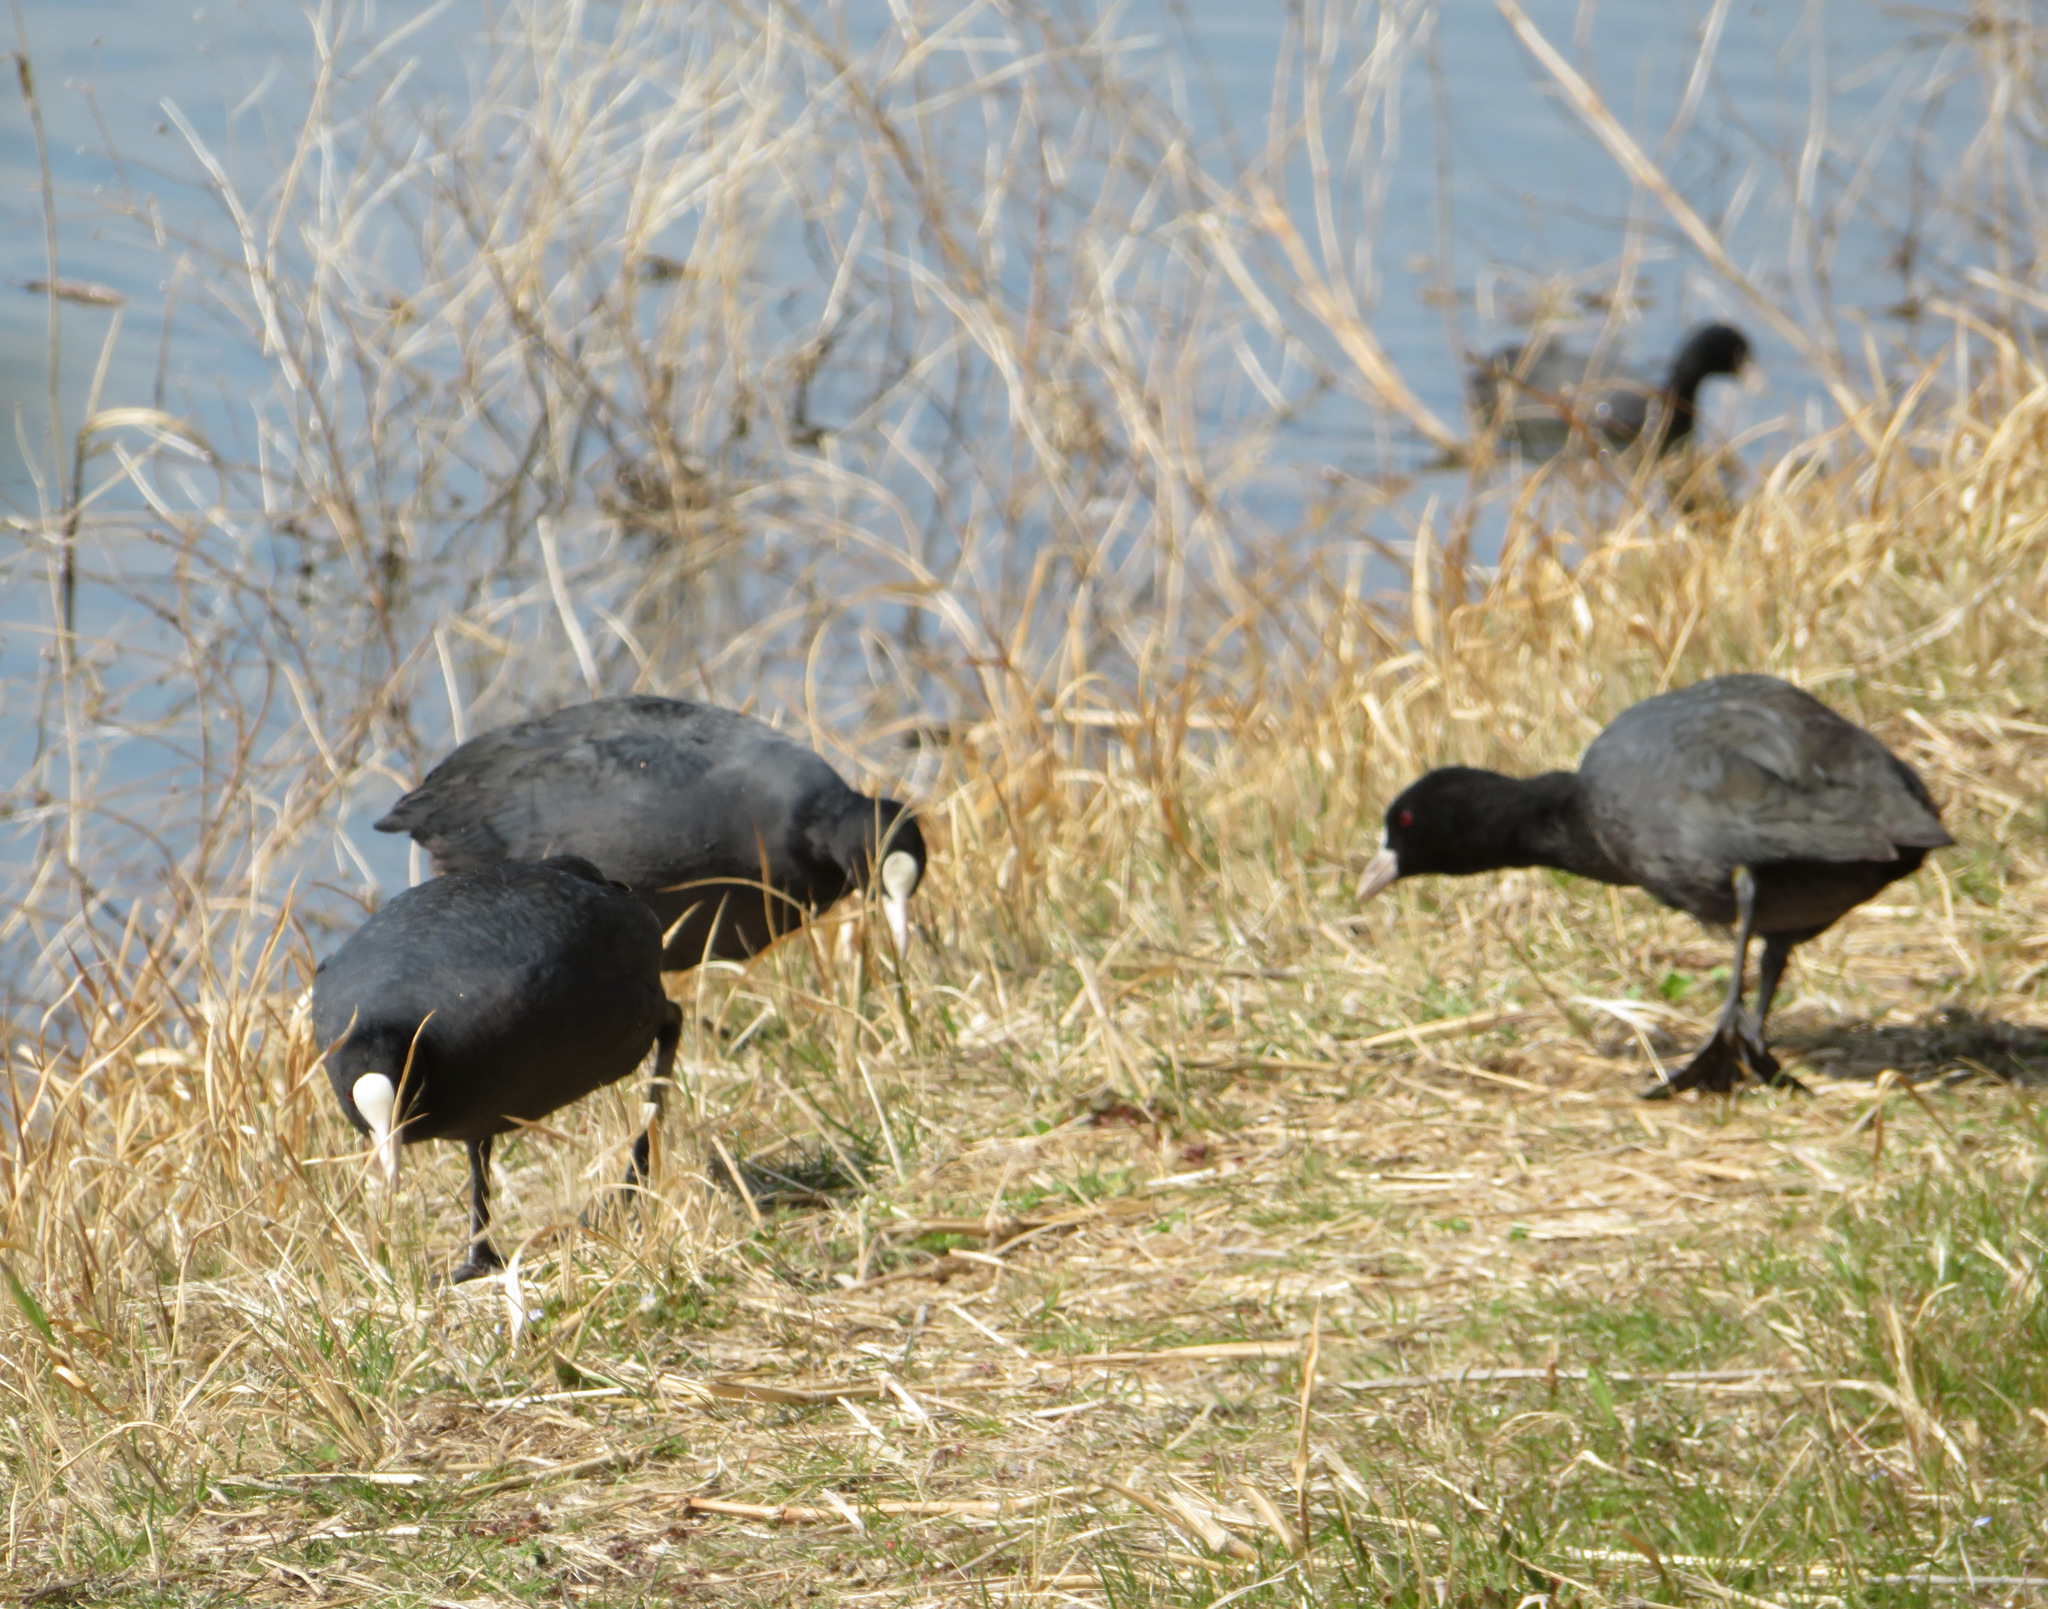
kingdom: Animalia
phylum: Chordata
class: Aves
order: Gruiformes
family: Rallidae
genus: Fulica
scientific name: Fulica atra
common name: Eurasian coot
